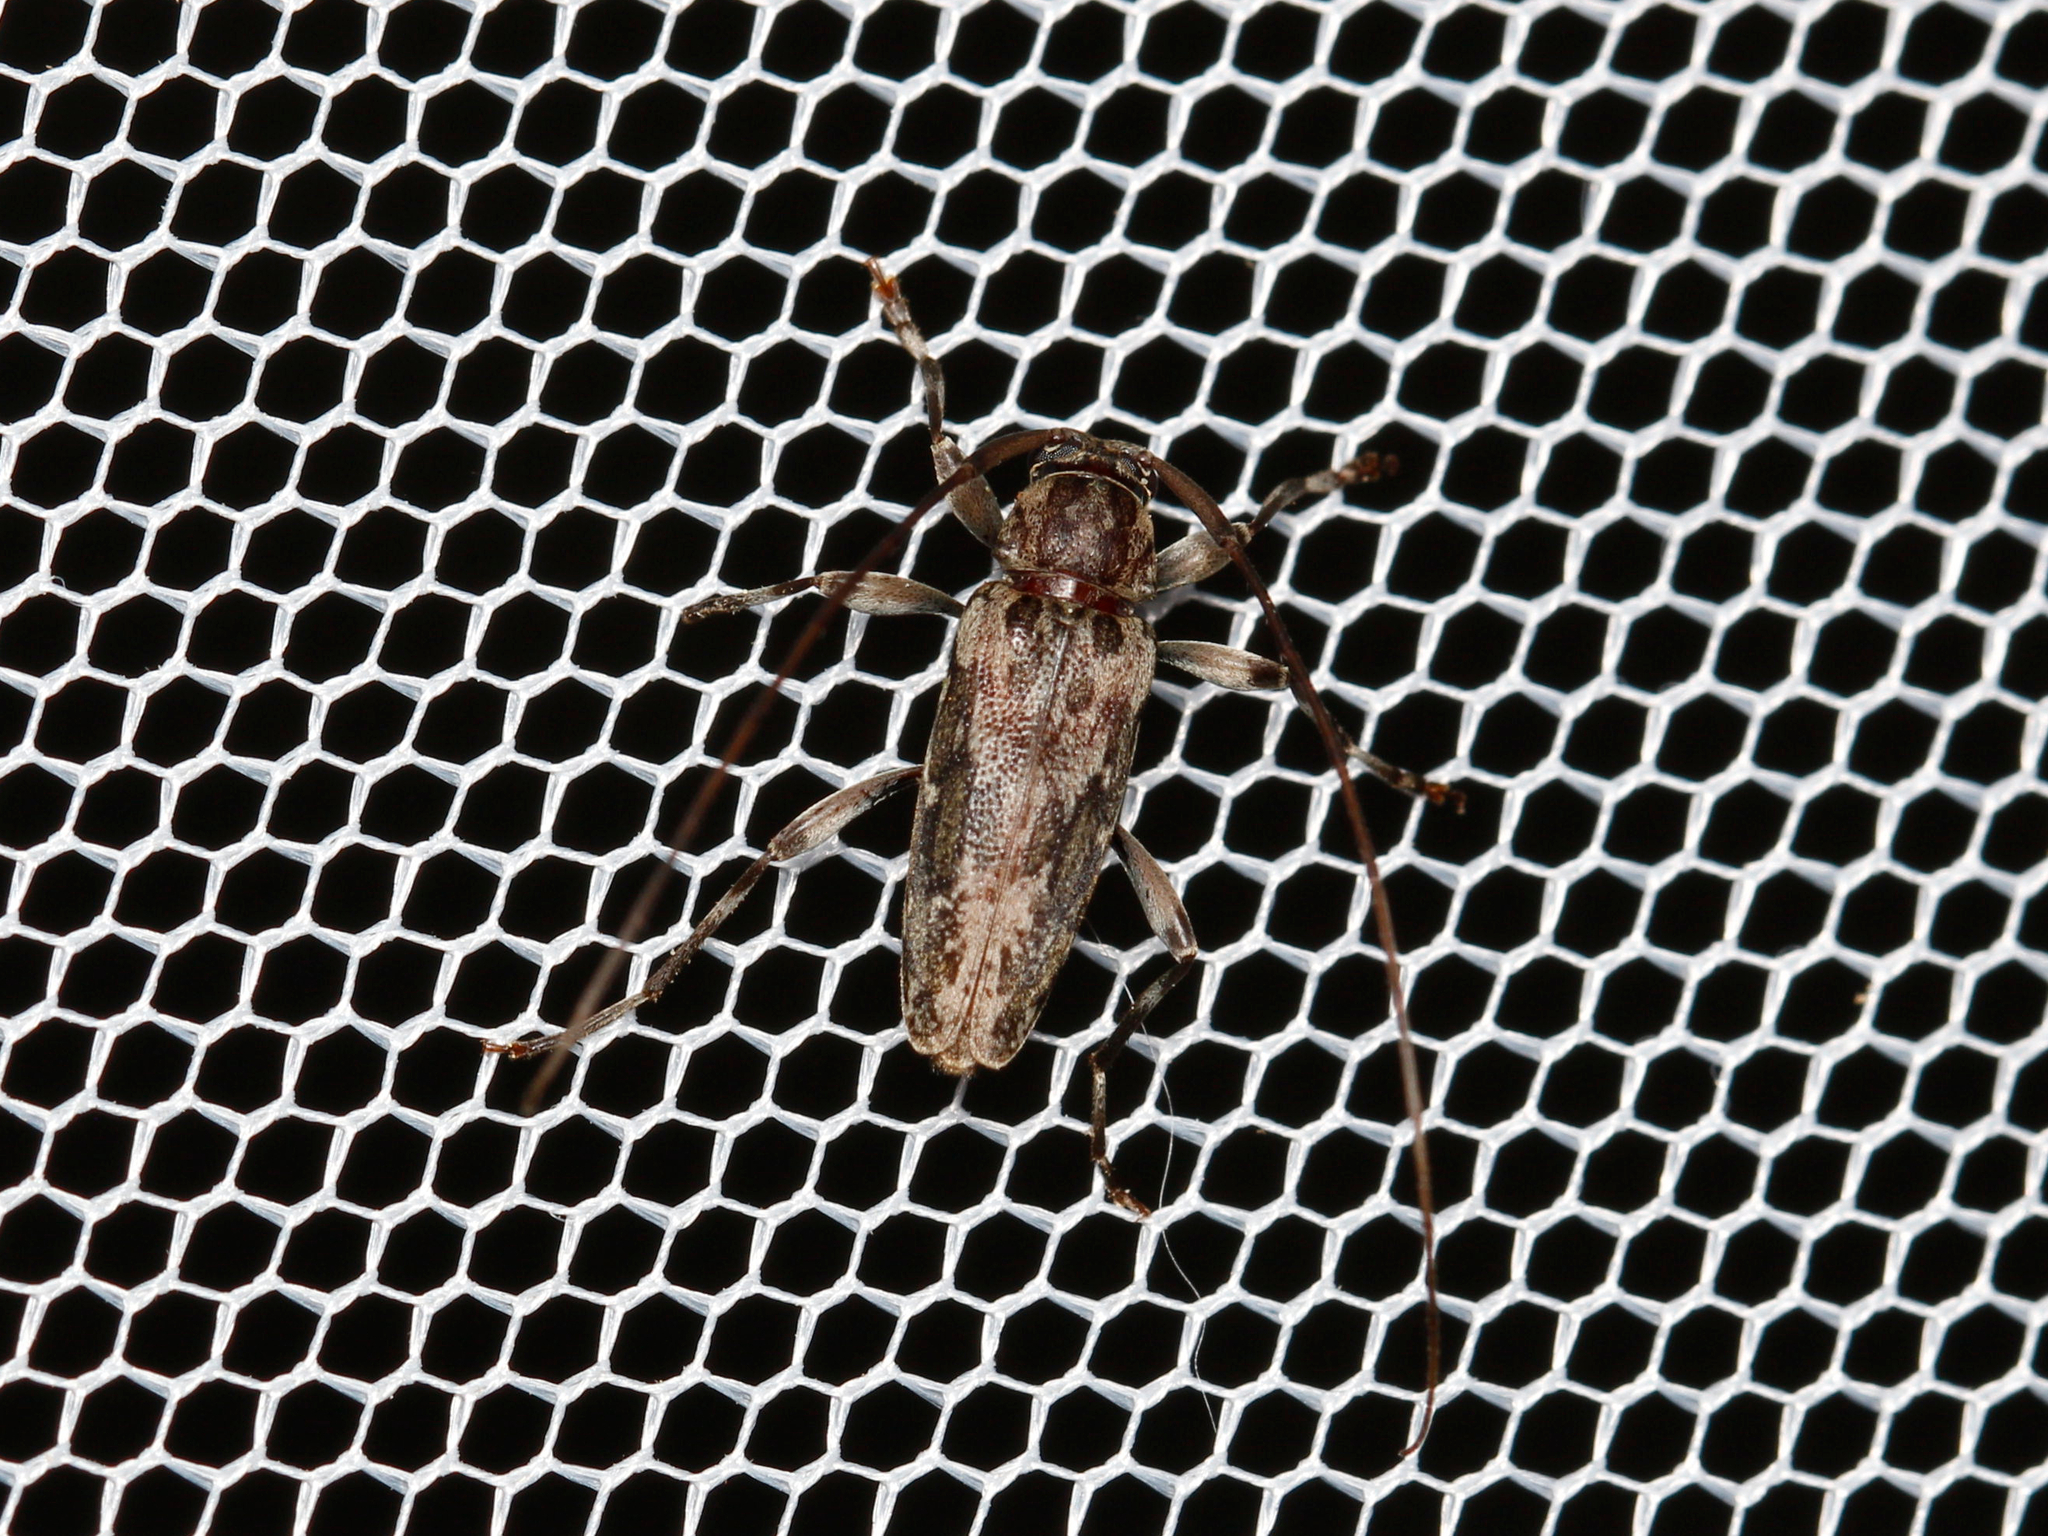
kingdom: Animalia
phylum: Arthropoda
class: Insecta
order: Coleoptera
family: Cerambycidae
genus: Lepturges
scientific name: Lepturges confluens
